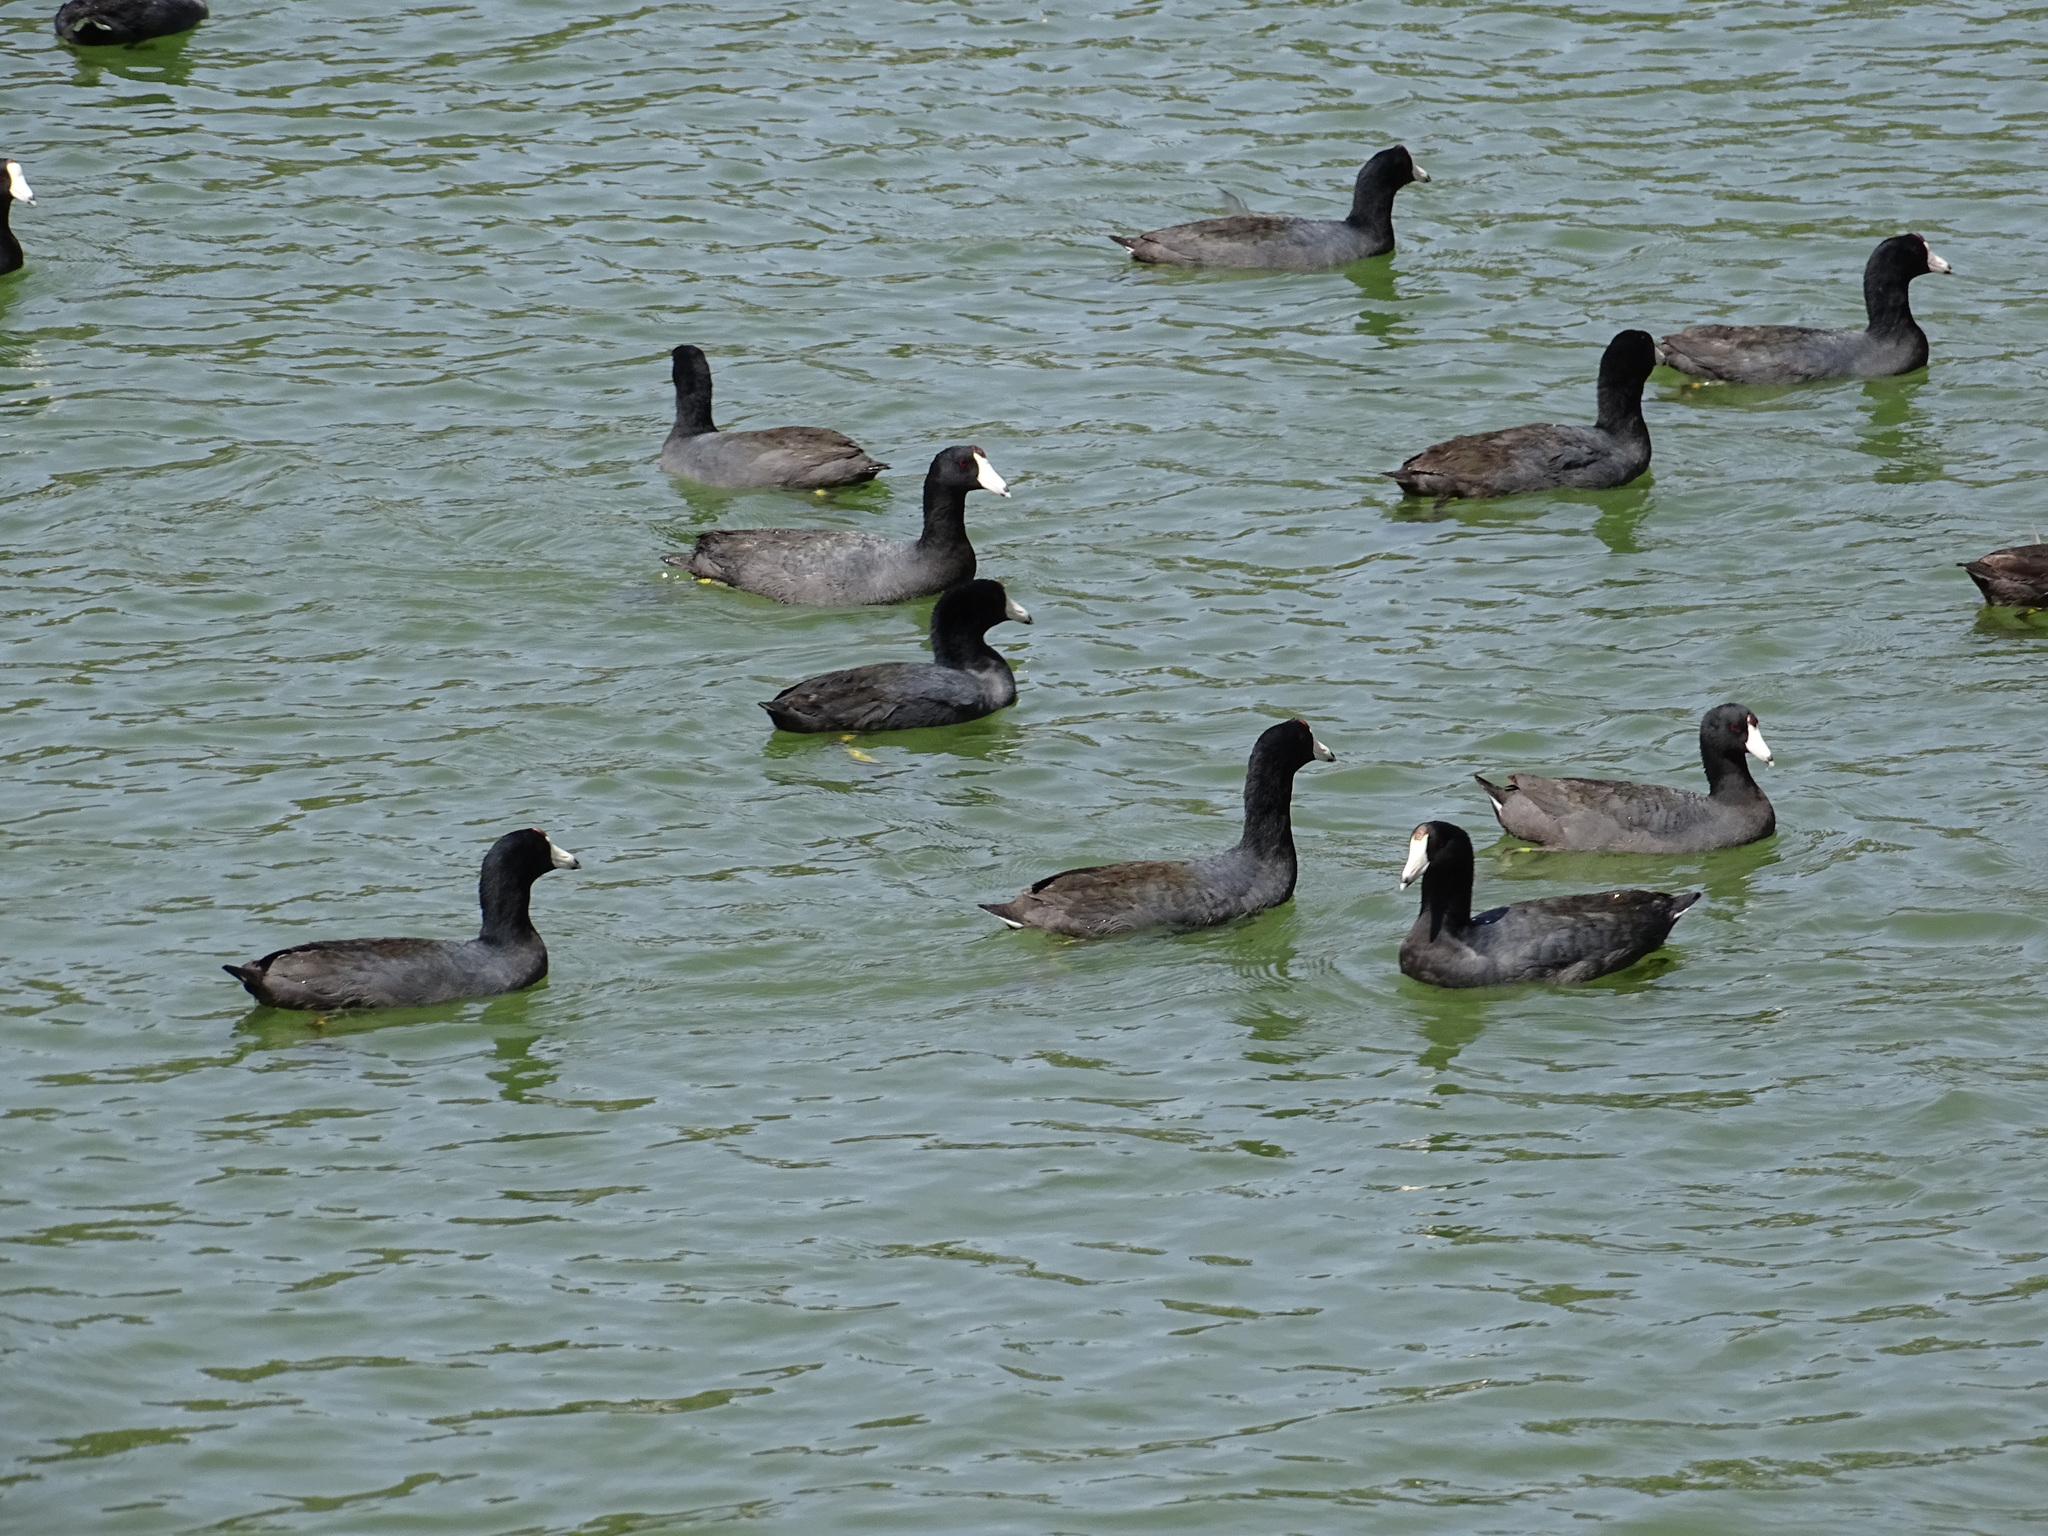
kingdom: Animalia
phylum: Chordata
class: Aves
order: Gruiformes
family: Rallidae
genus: Fulica
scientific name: Fulica americana
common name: American coot
